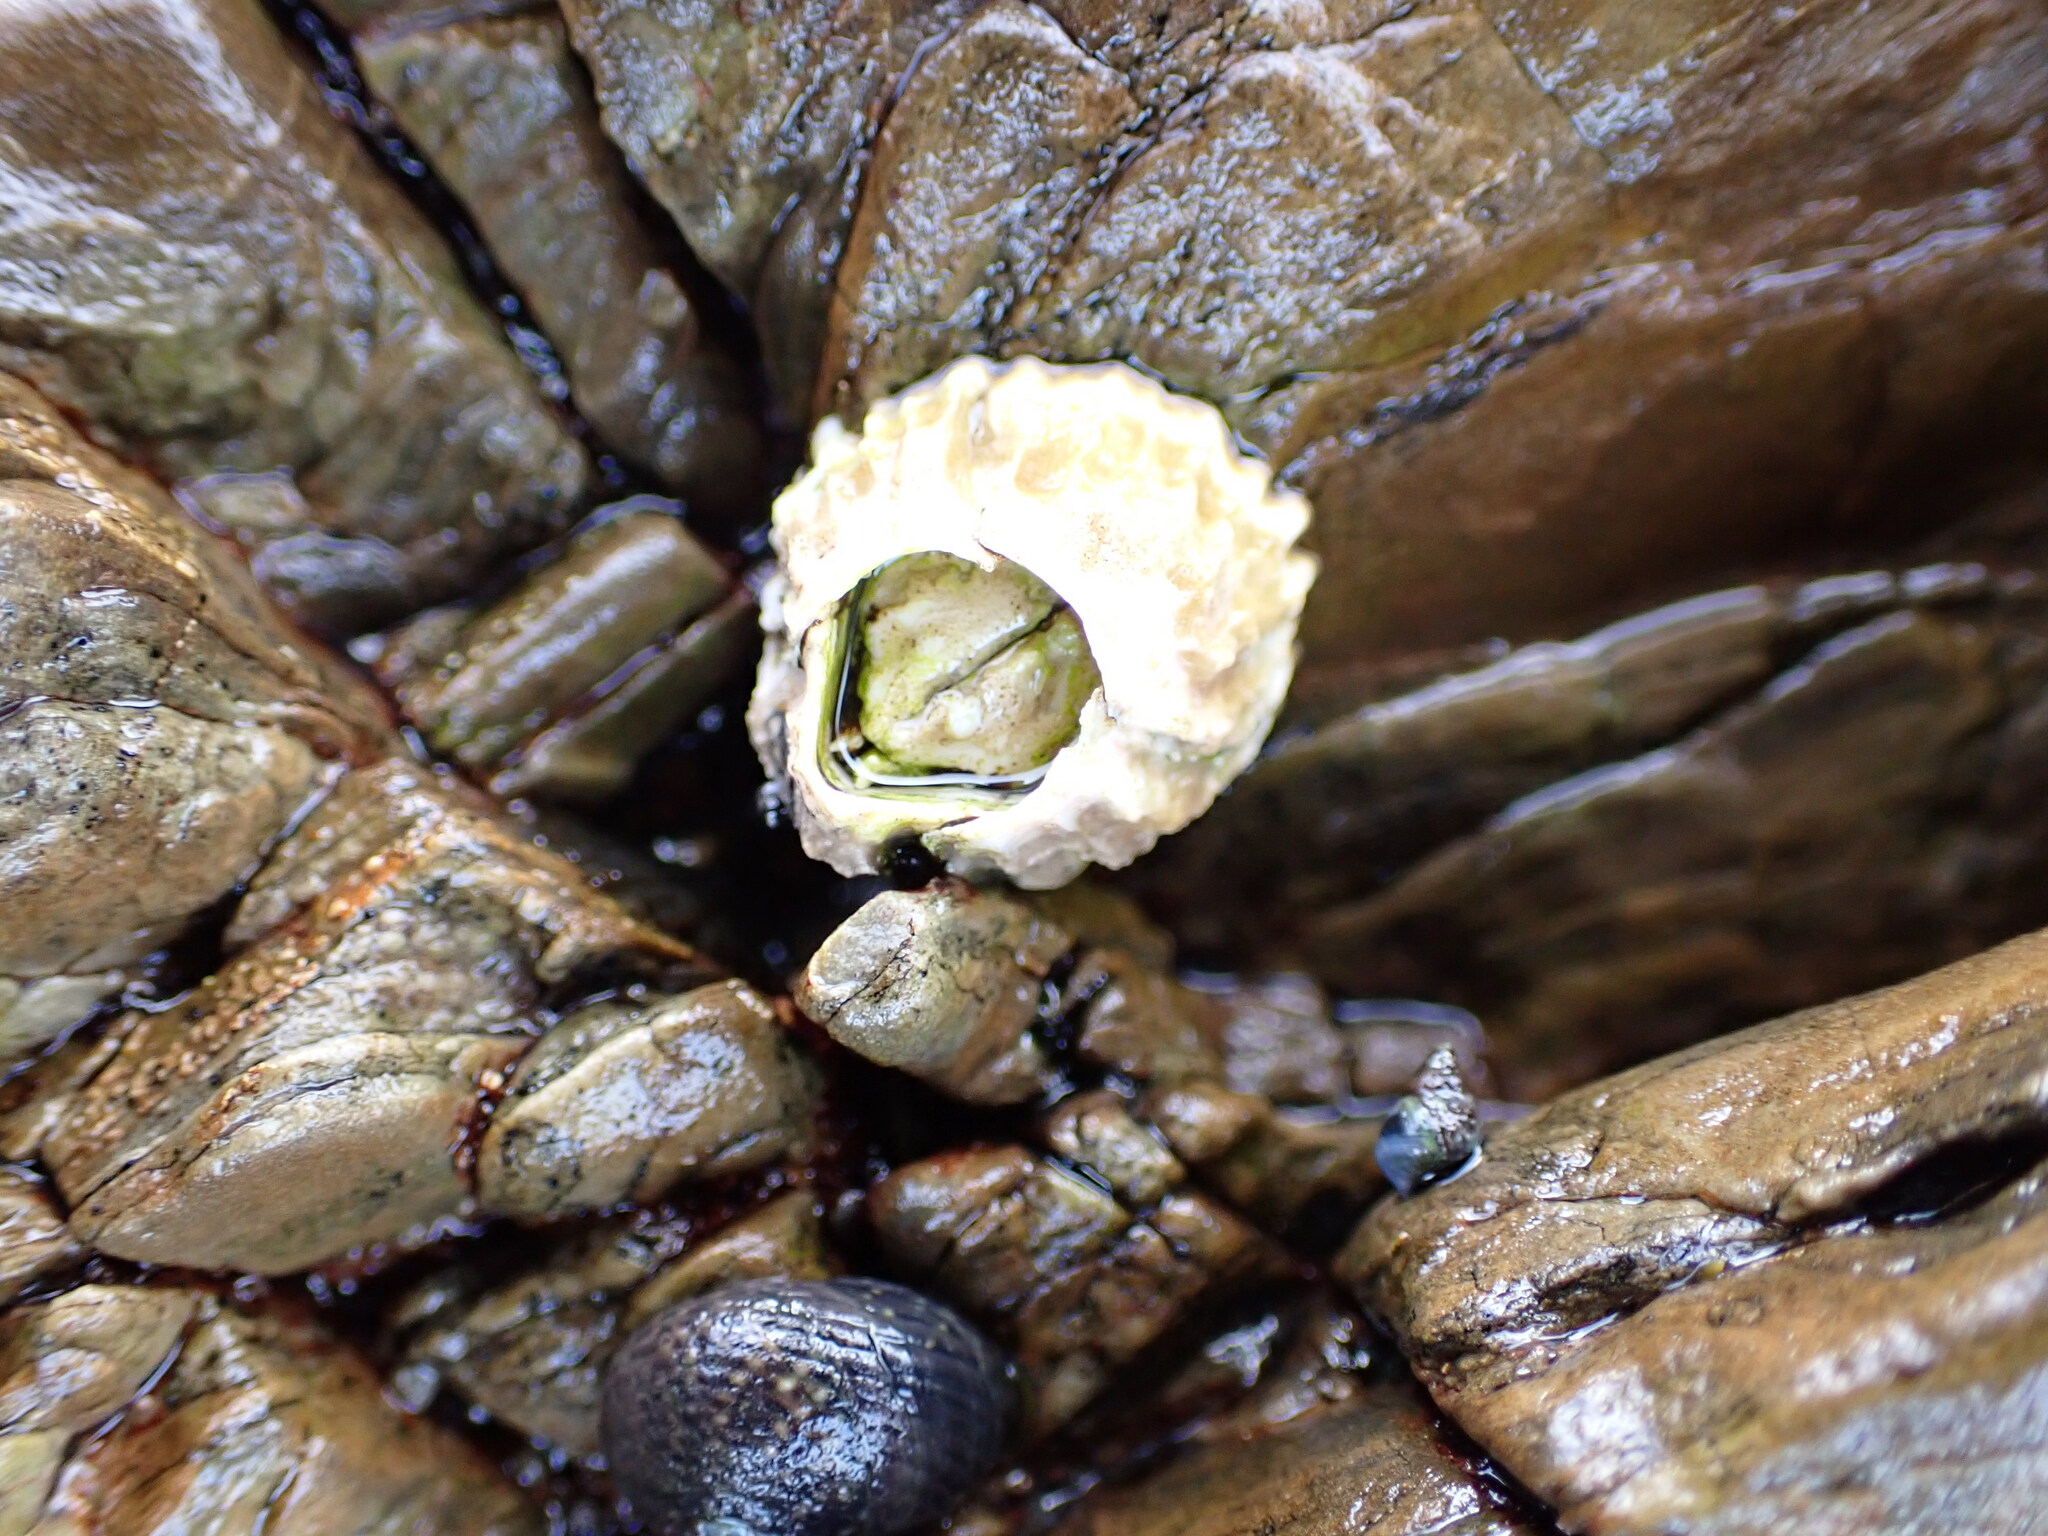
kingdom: Animalia
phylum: Arthropoda
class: Maxillopoda
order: Sessilia
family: Tetraclitidae
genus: Epopella
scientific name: Epopella plicata
